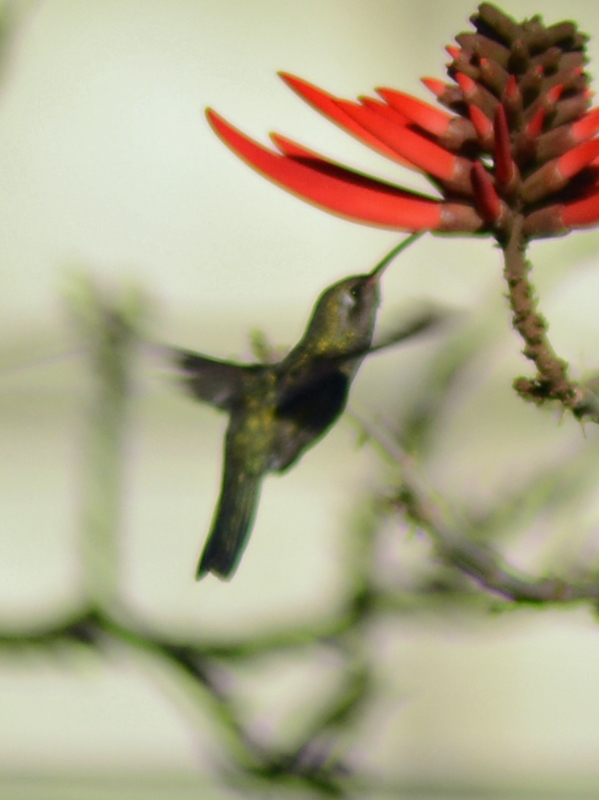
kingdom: Animalia
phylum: Chordata
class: Aves
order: Apodiformes
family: Trochilidae
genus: Cynanthus
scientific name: Cynanthus latirostris
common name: Broad-billed hummingbird
